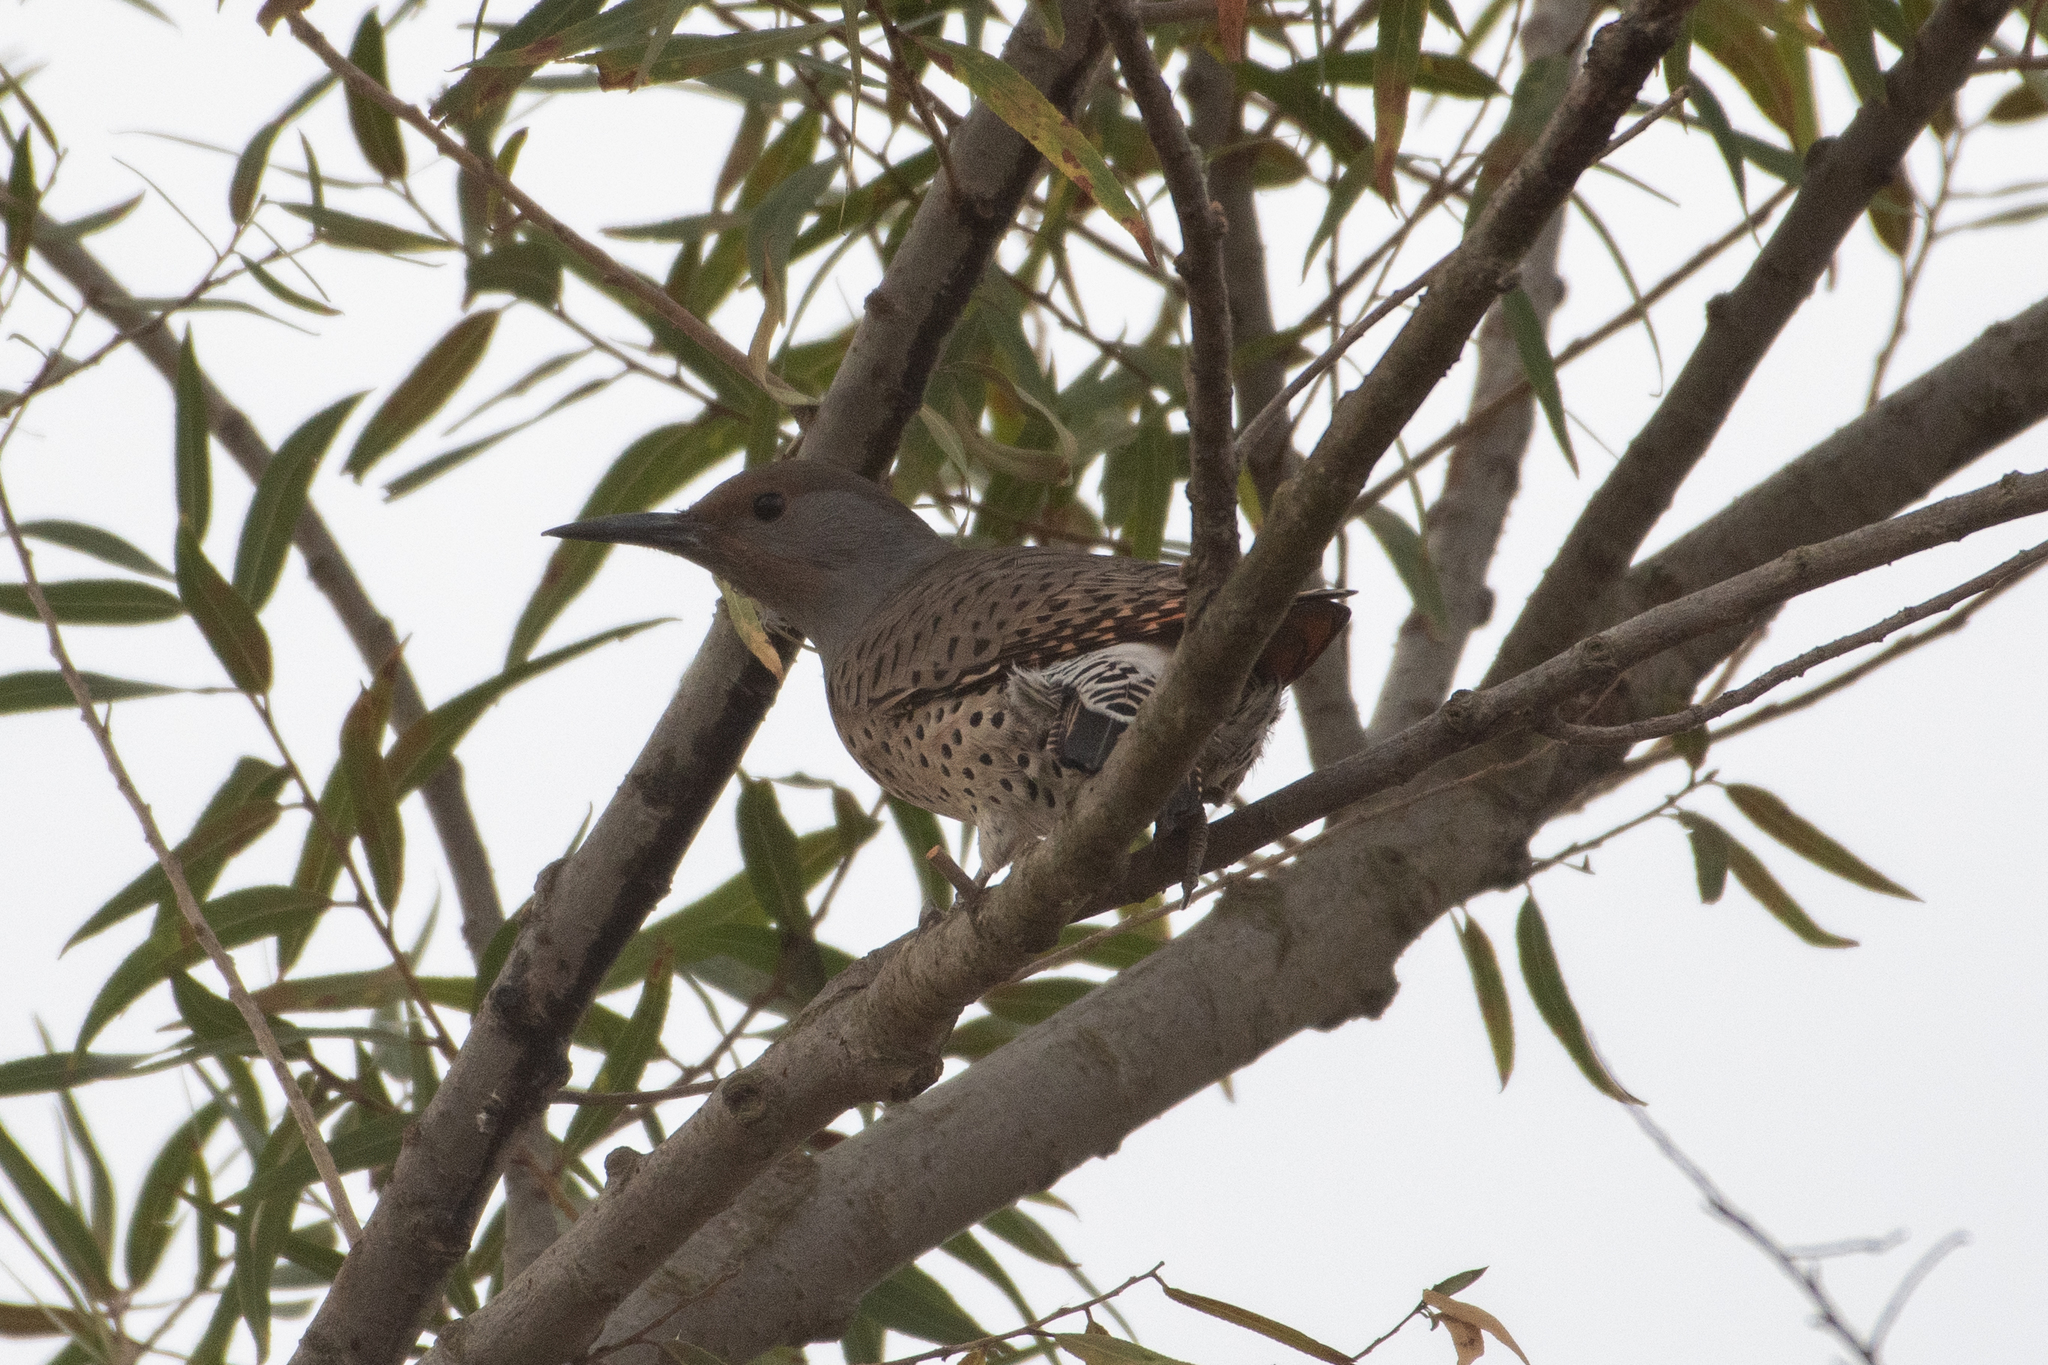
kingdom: Animalia
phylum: Chordata
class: Aves
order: Piciformes
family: Picidae
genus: Colaptes
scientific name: Colaptes auratus
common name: Northern flicker
